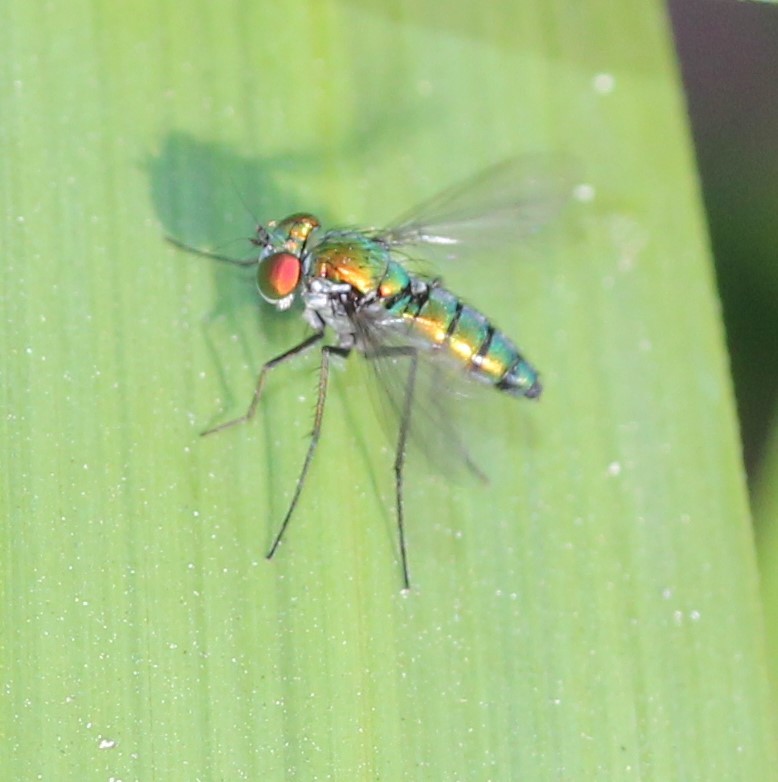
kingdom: Animalia
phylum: Arthropoda
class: Insecta
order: Diptera
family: Dolichopodidae
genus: Condylostylus
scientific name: Condylostylus longicornis
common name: Long-legged fly
